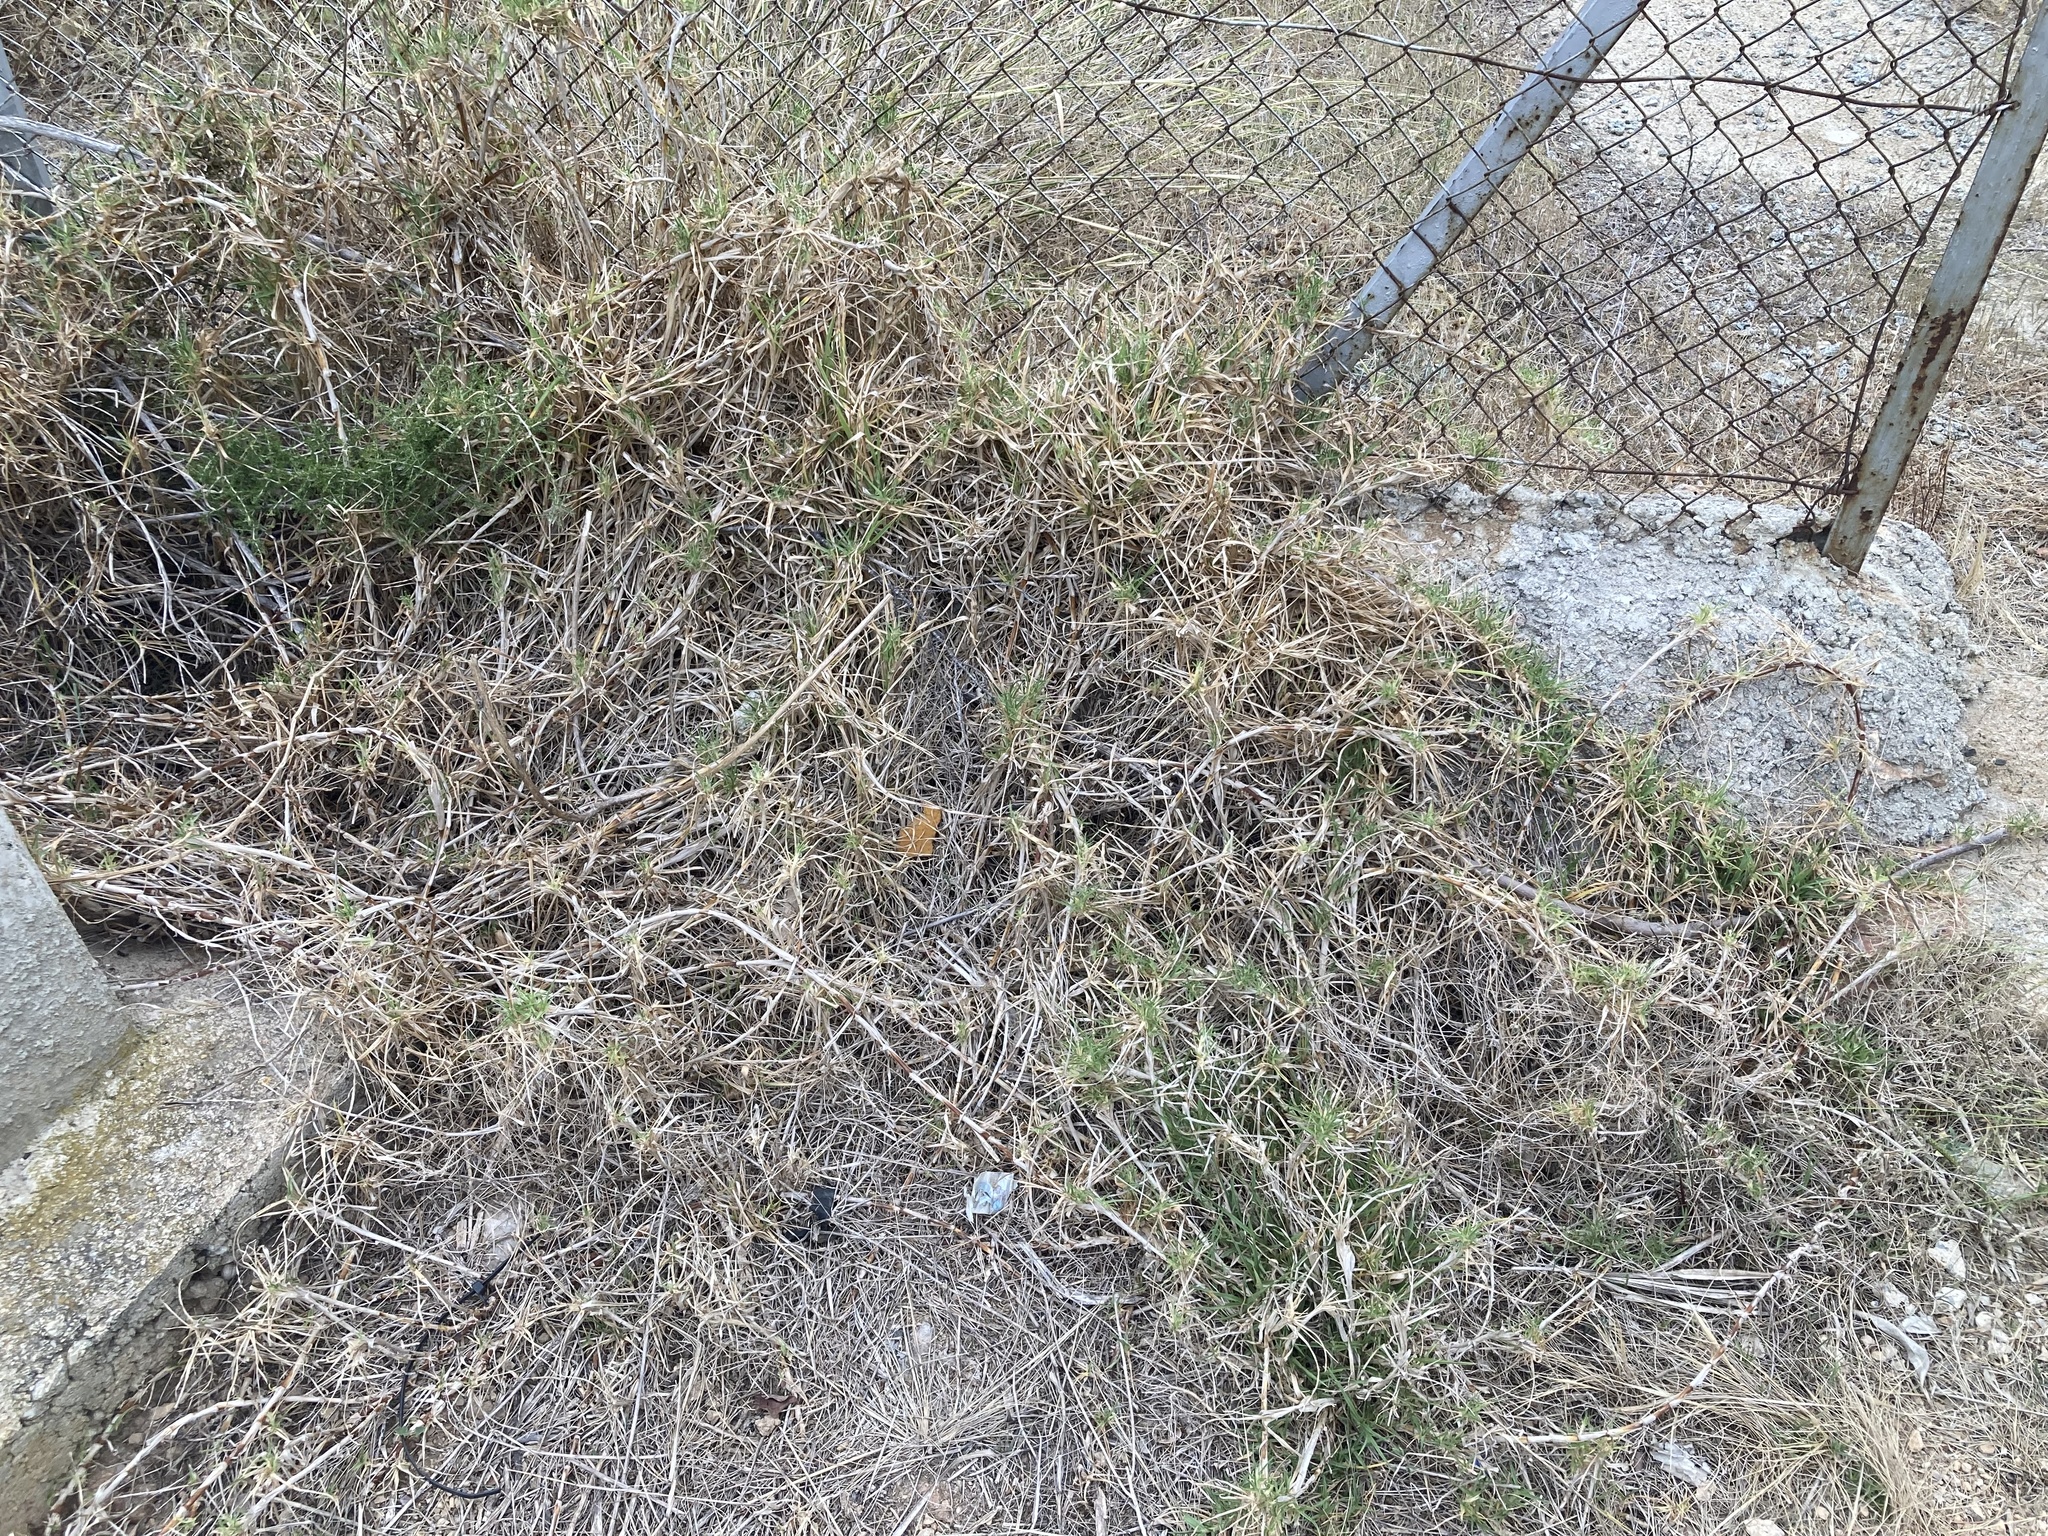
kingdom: Plantae
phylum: Tracheophyta
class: Liliopsida
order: Poales
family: Poaceae
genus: Cenchrus
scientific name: Cenchrus clandestinus
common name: Kikuyugrass
